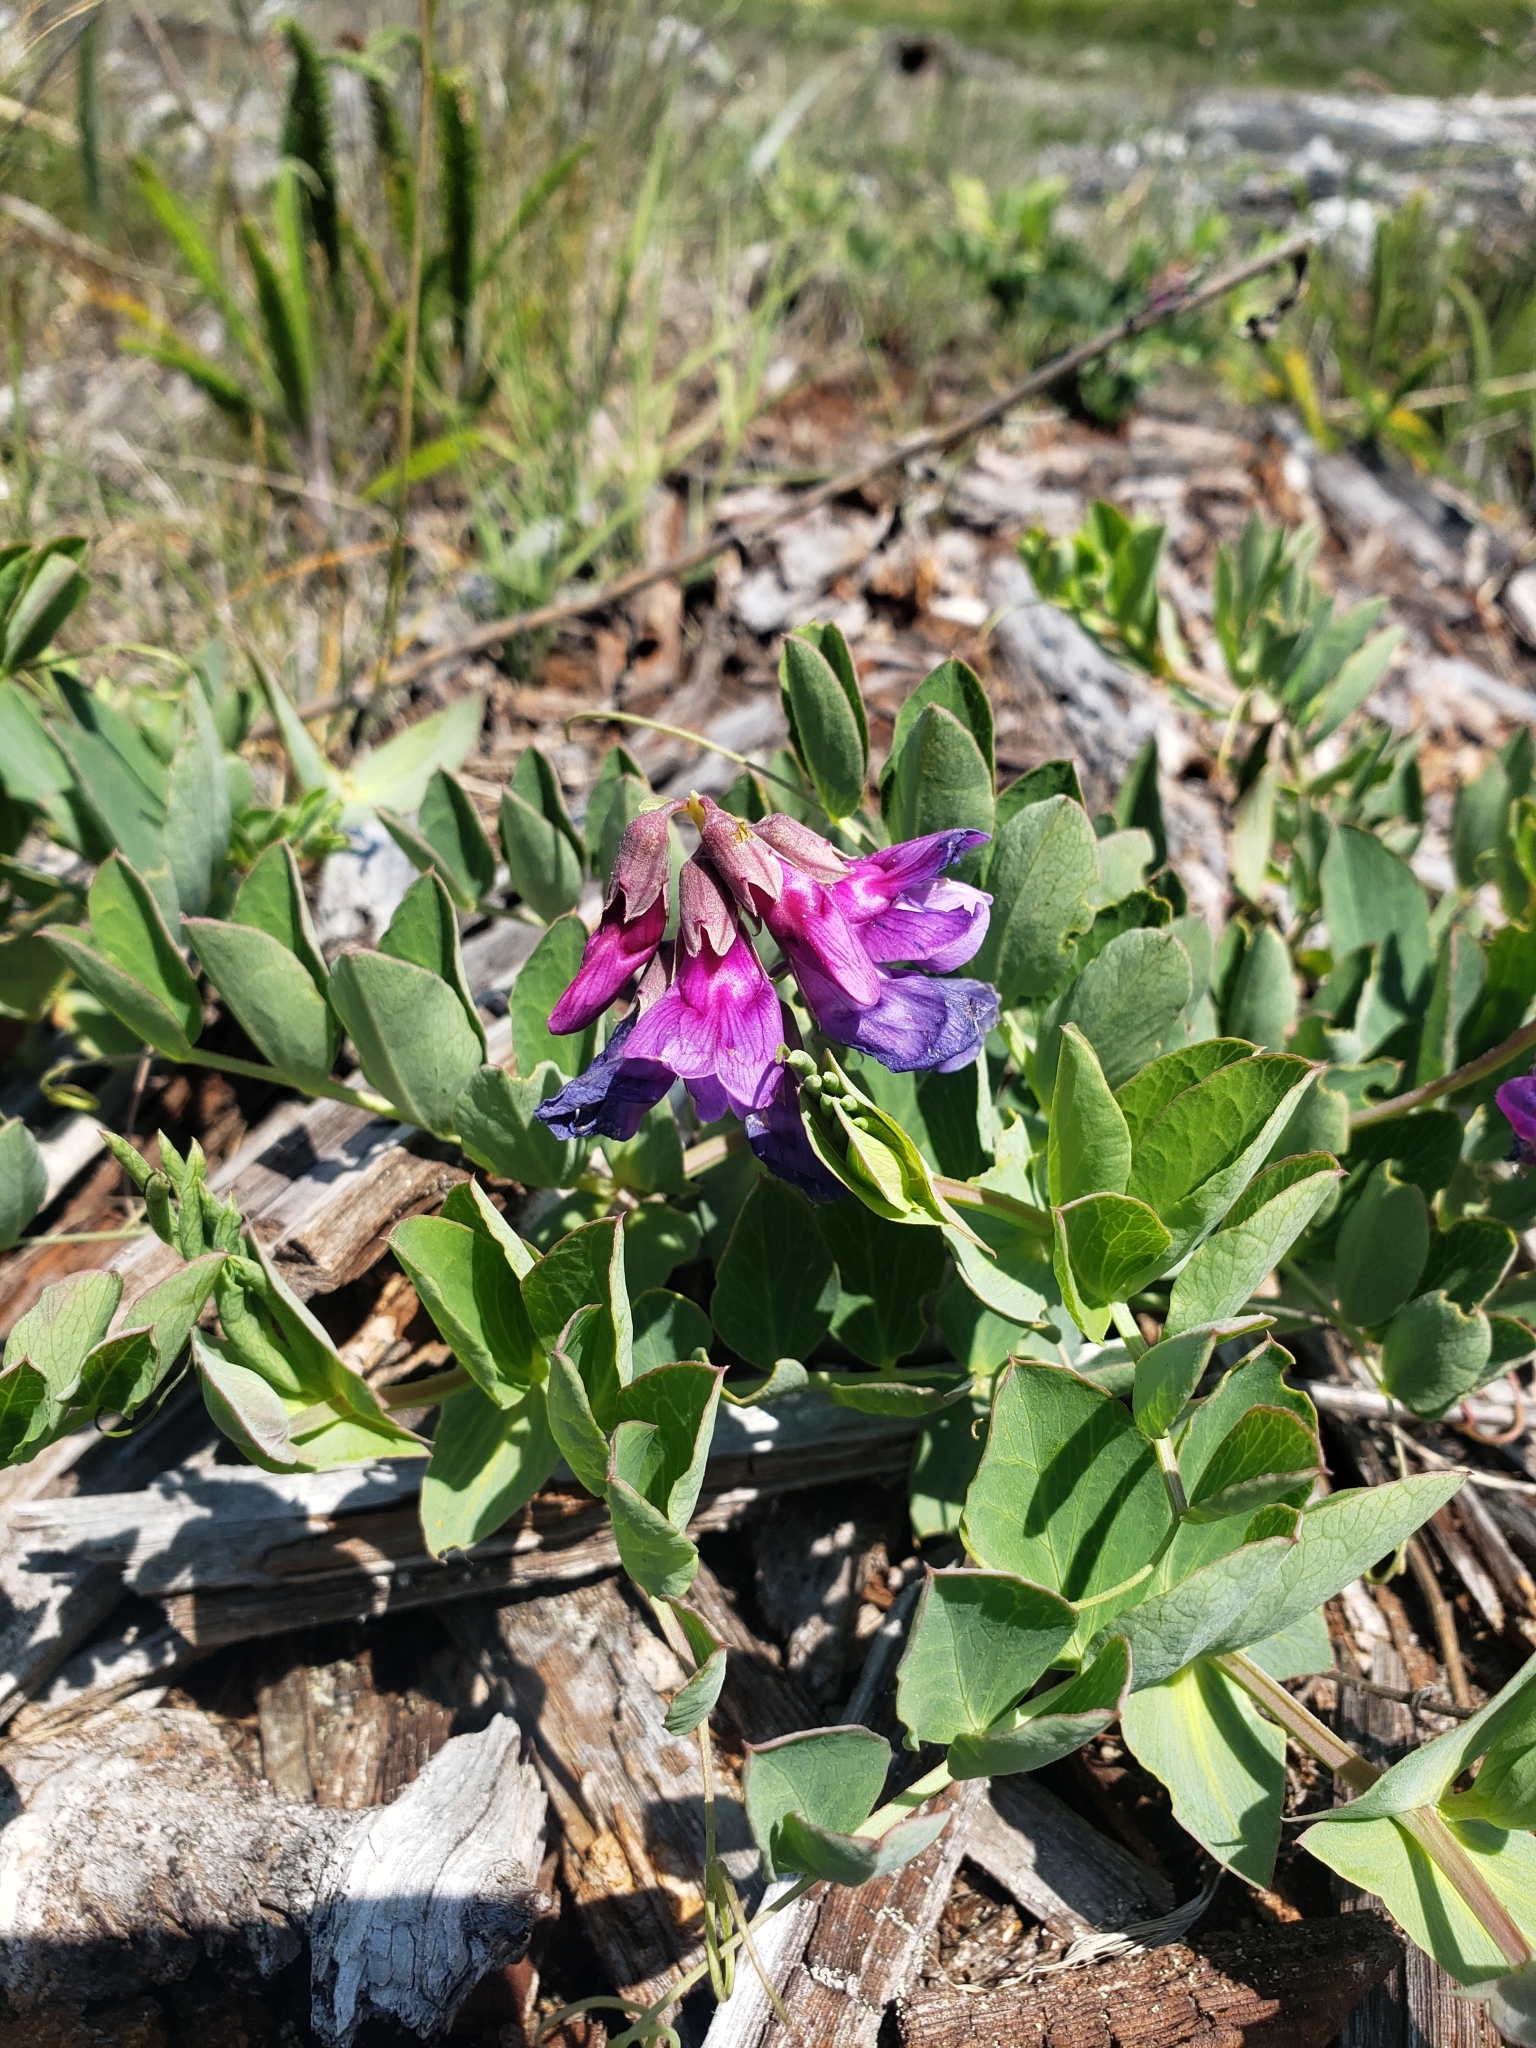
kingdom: Plantae
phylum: Tracheophyta
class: Magnoliopsida
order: Fabales
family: Fabaceae
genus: Lathyrus
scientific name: Lathyrus japonicus
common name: Sea pea
